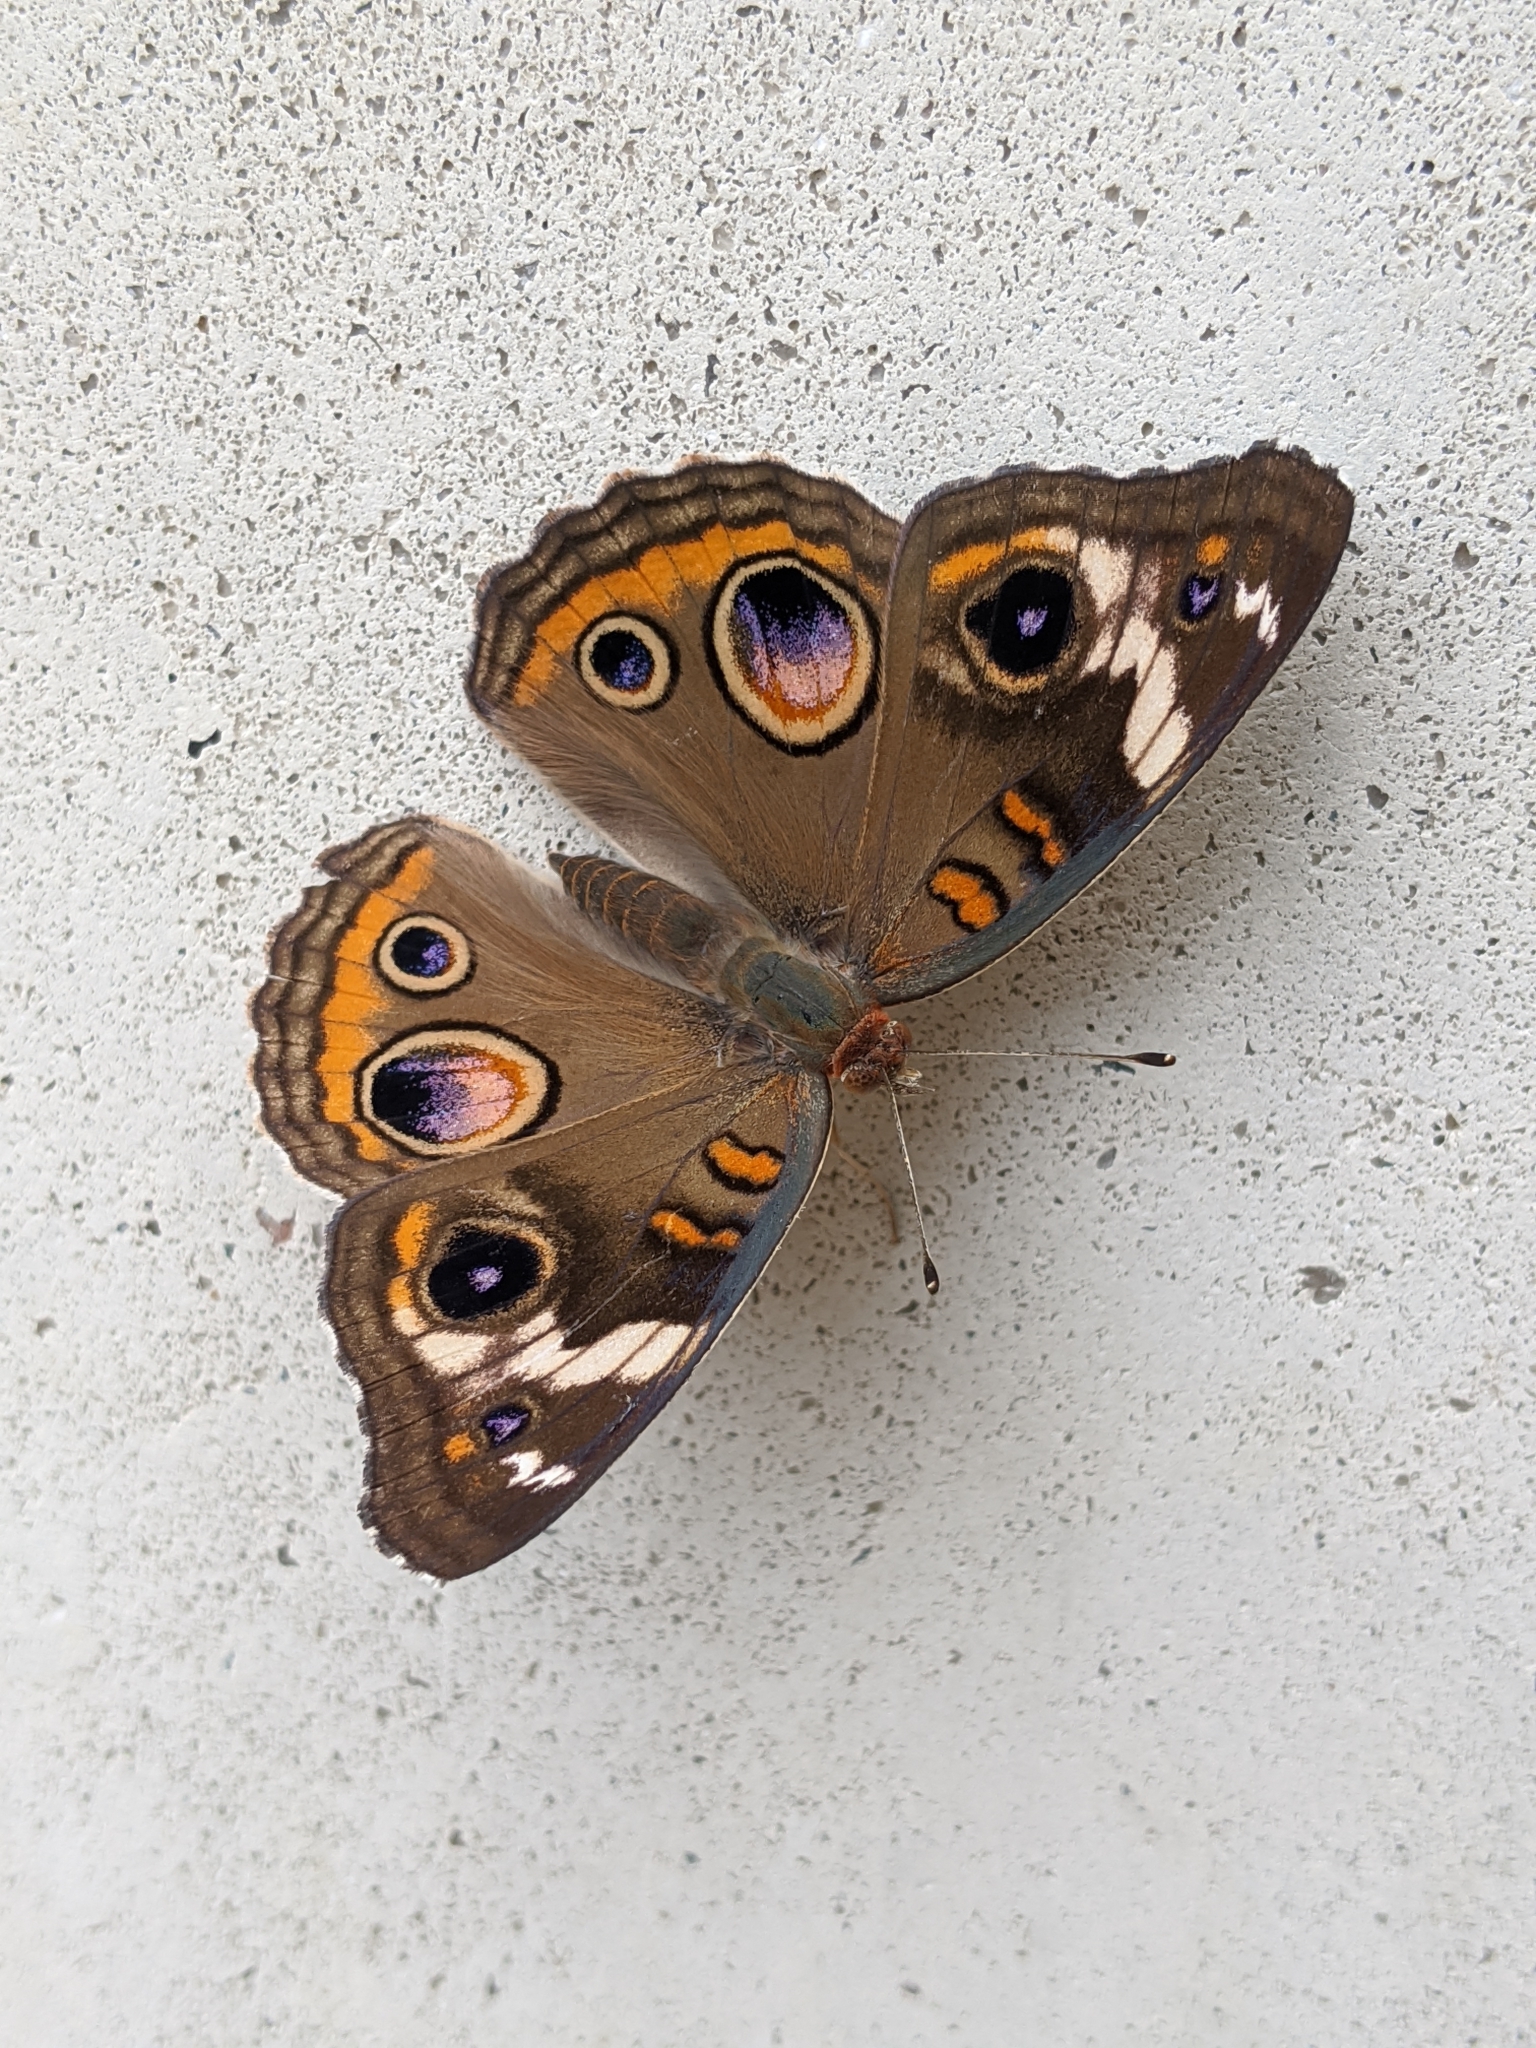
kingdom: Animalia
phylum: Arthropoda
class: Insecta
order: Lepidoptera
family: Nymphalidae
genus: Junonia
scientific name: Junonia coenia
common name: Common buckeye
